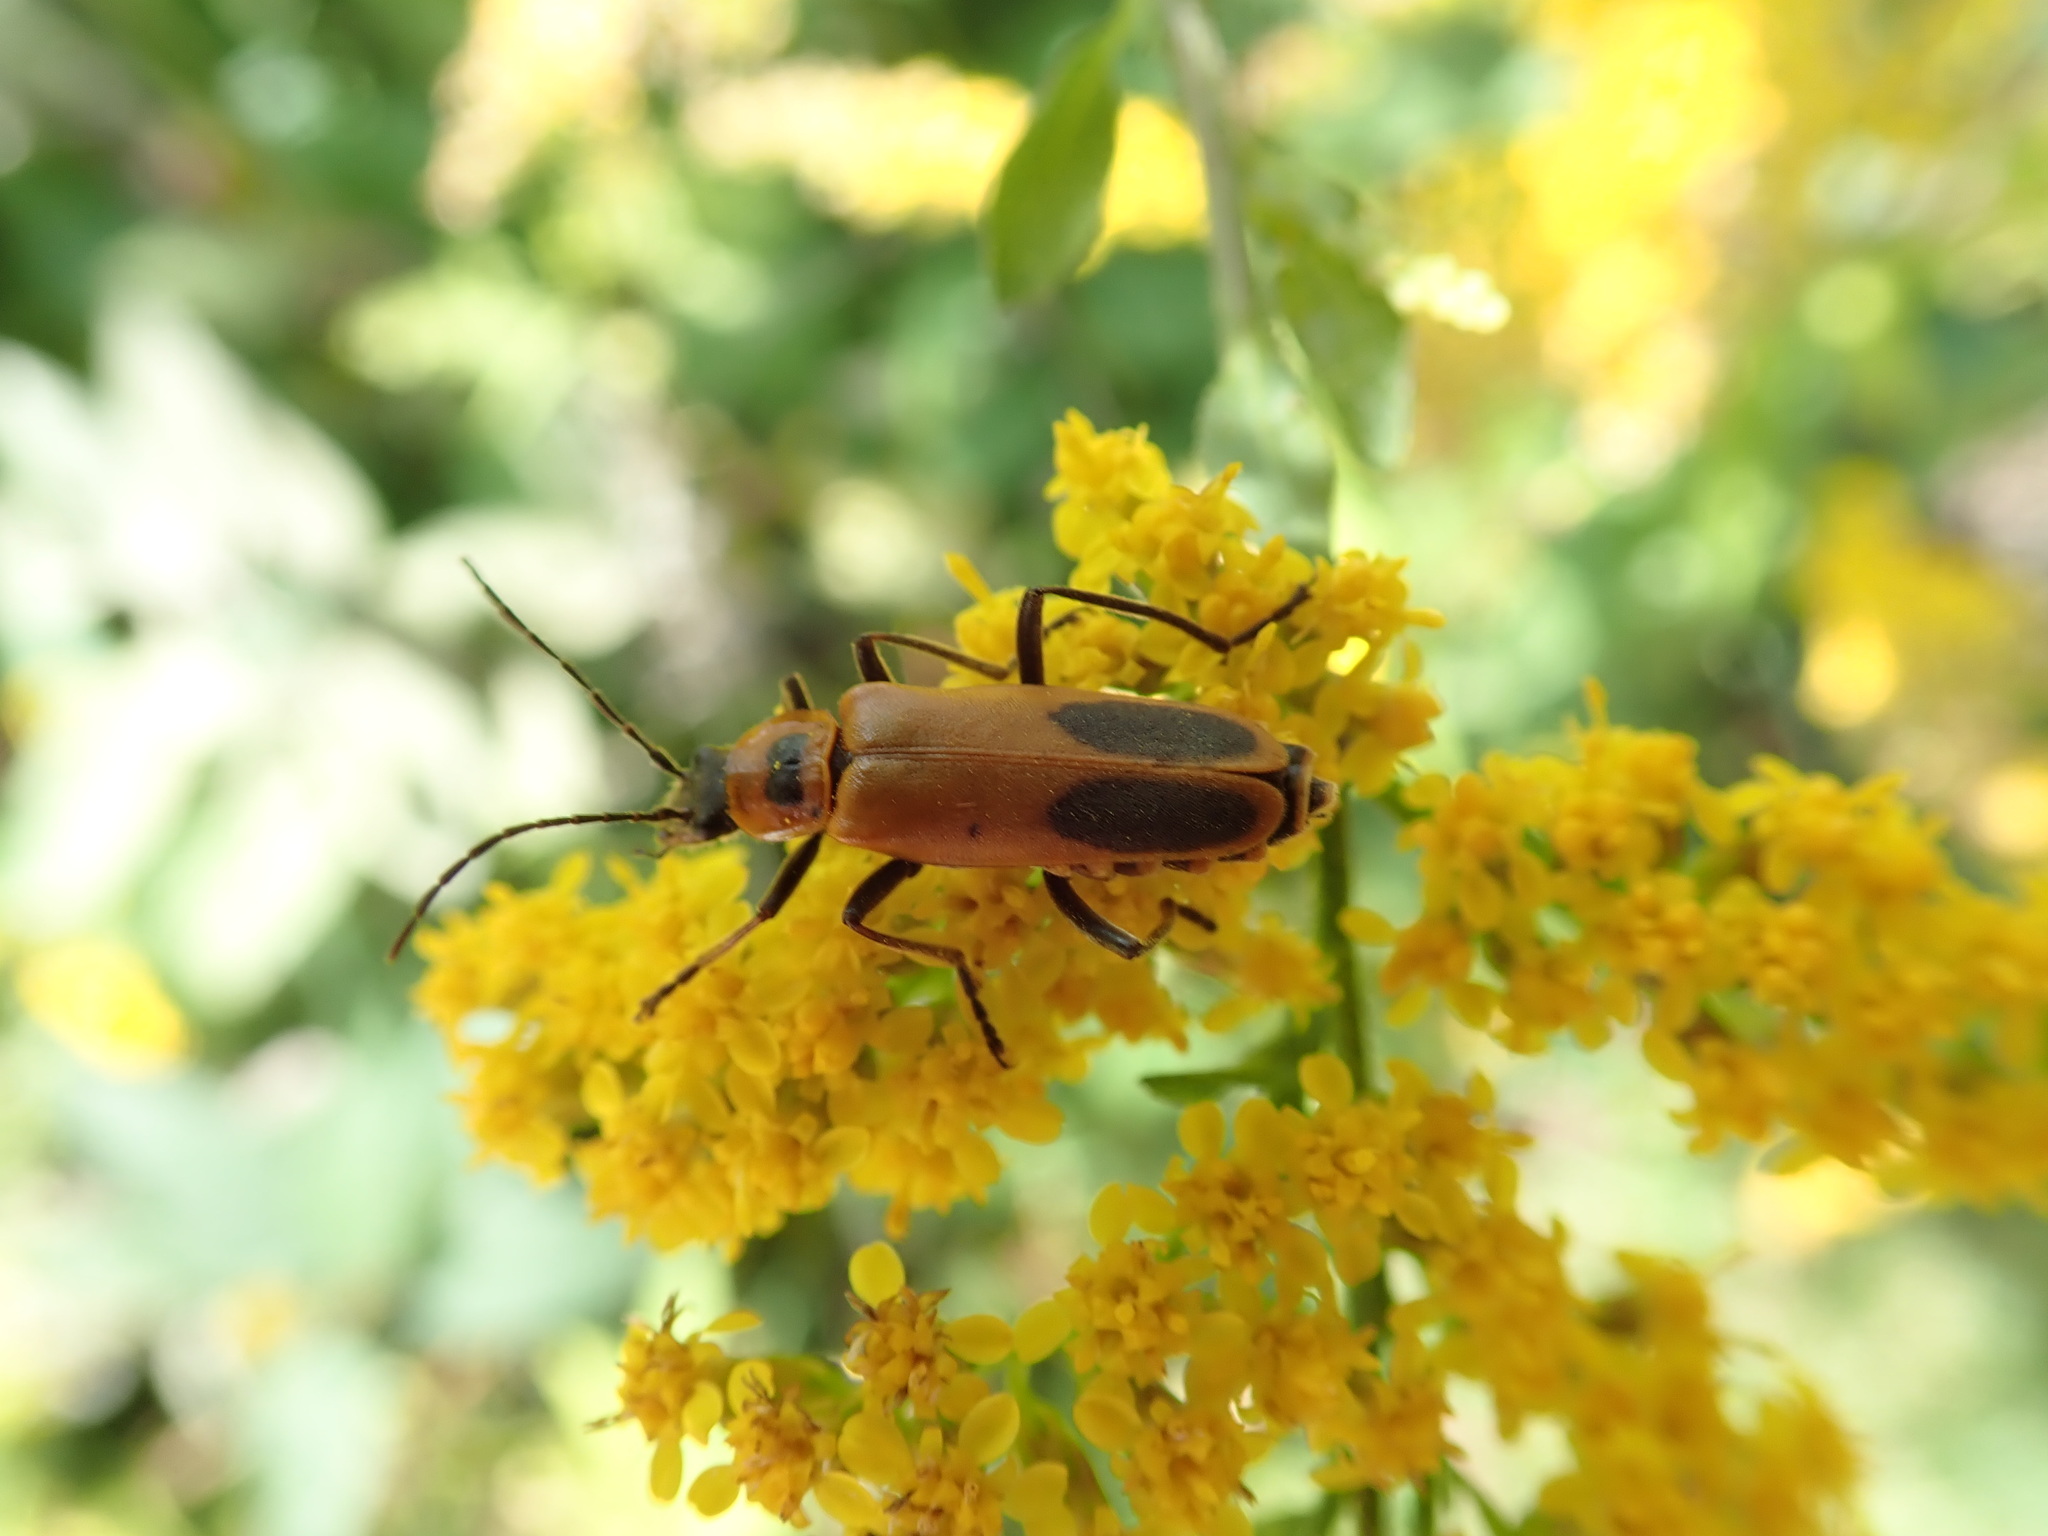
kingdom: Animalia
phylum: Arthropoda
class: Insecta
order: Coleoptera
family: Cantharidae
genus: Chauliognathus
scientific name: Chauliognathus pensylvanicus
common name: Goldenrod soldier beetle
